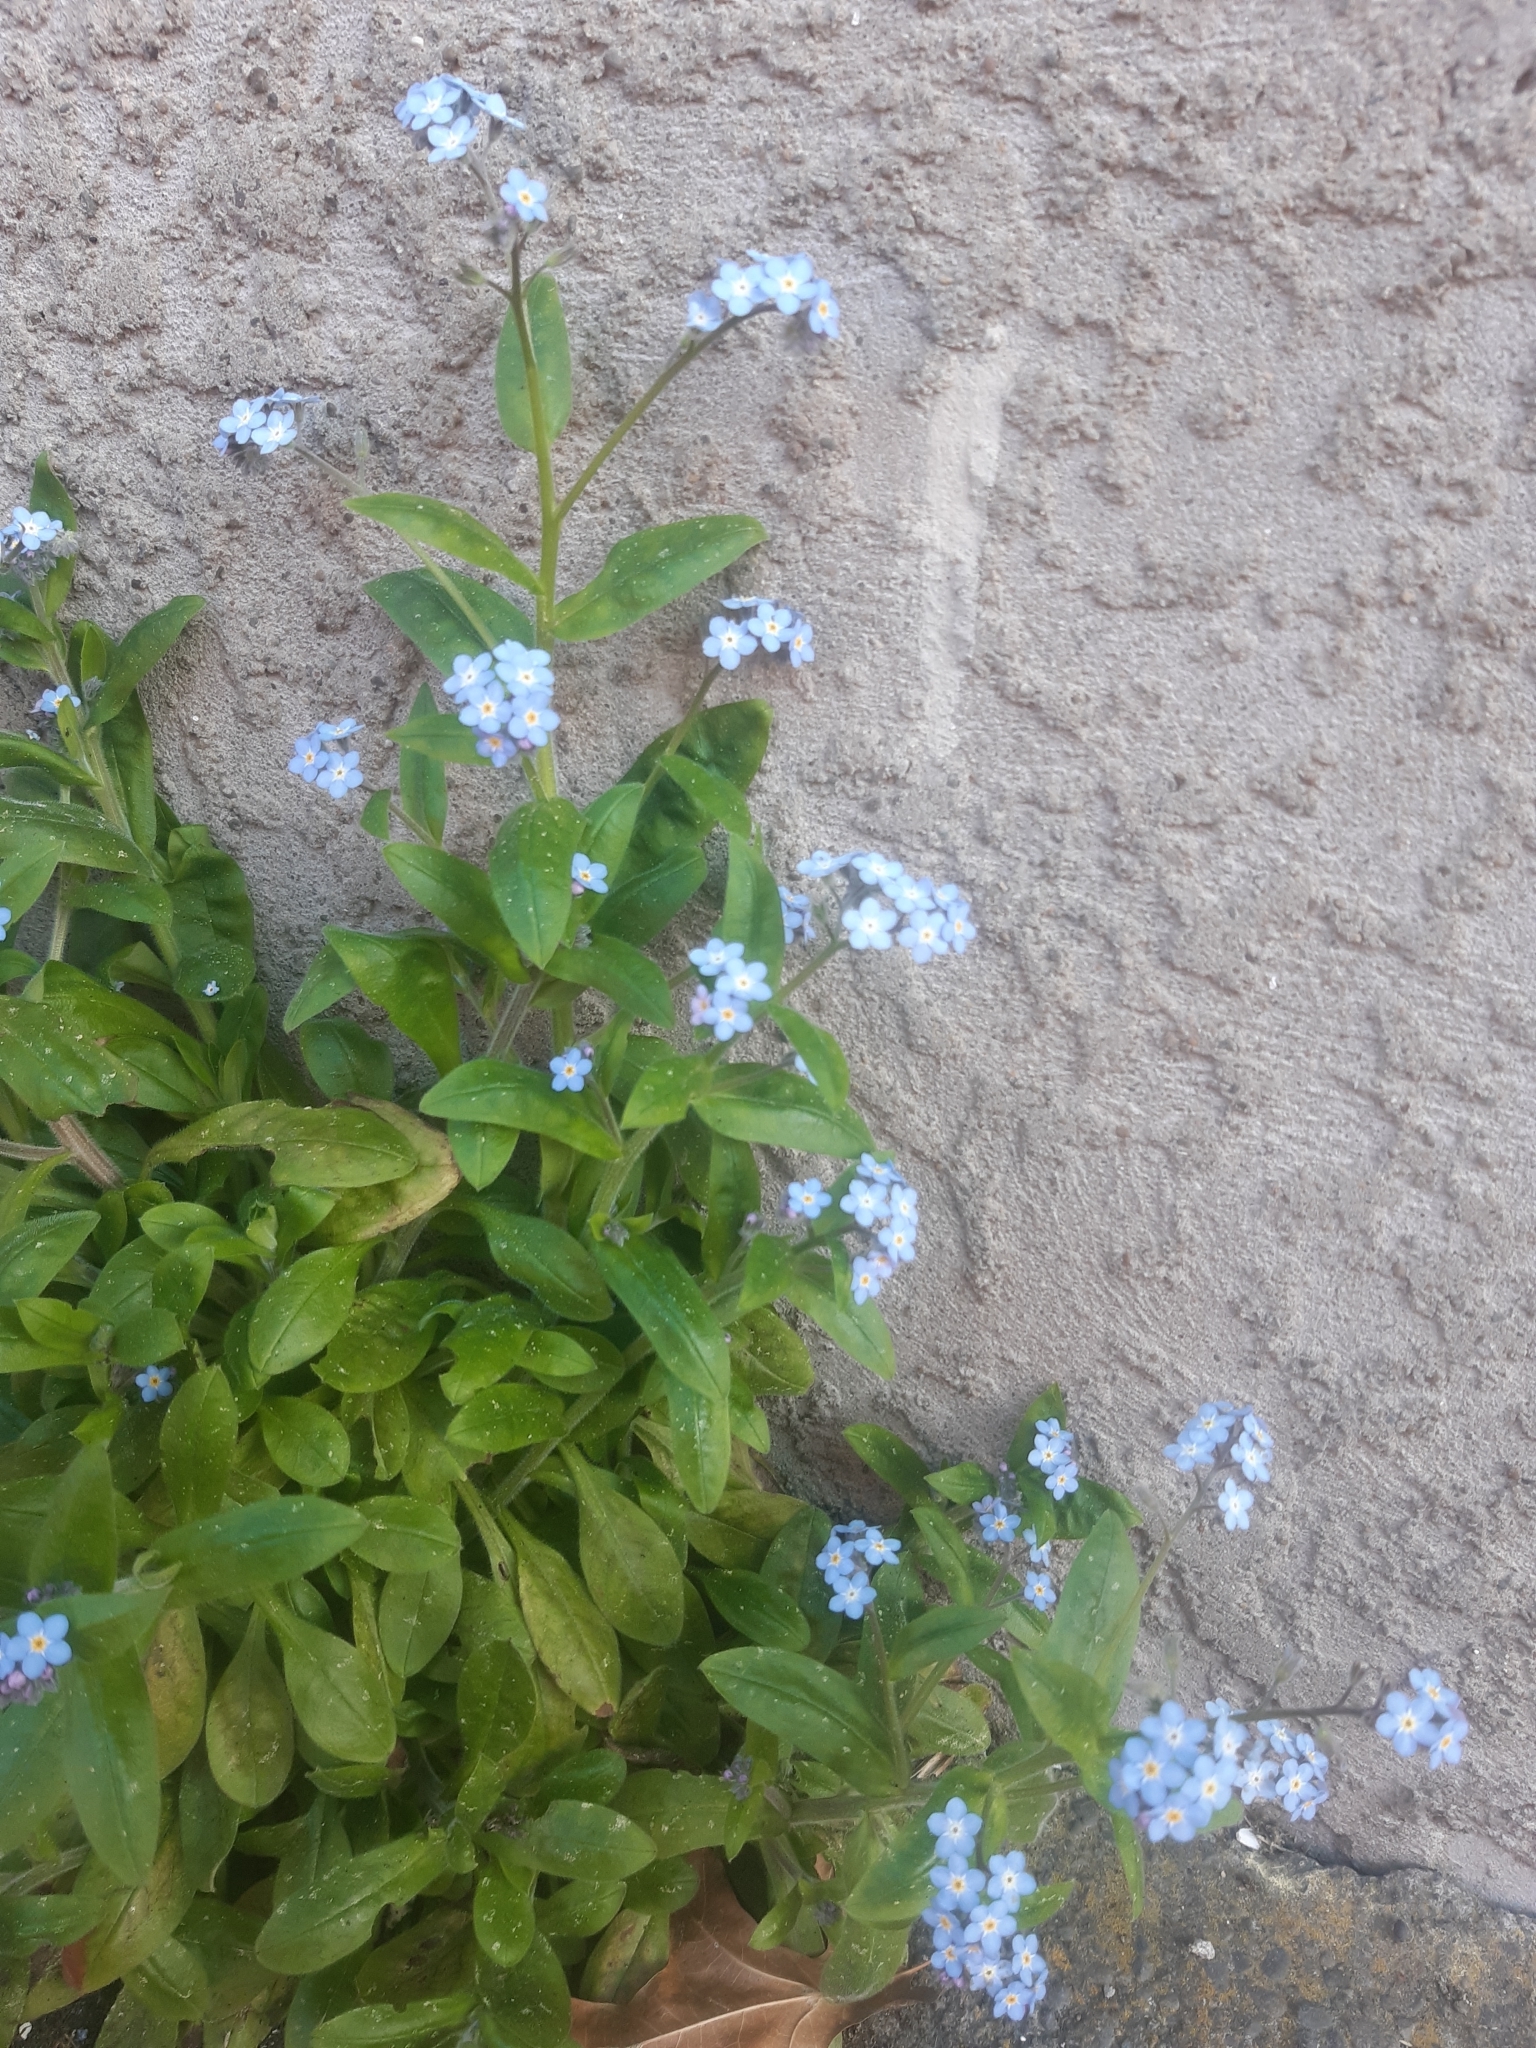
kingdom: Plantae
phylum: Tracheophyta
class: Magnoliopsida
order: Boraginales
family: Boraginaceae
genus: Myosotis
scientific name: Myosotis sylvatica
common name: Wood forget-me-not
